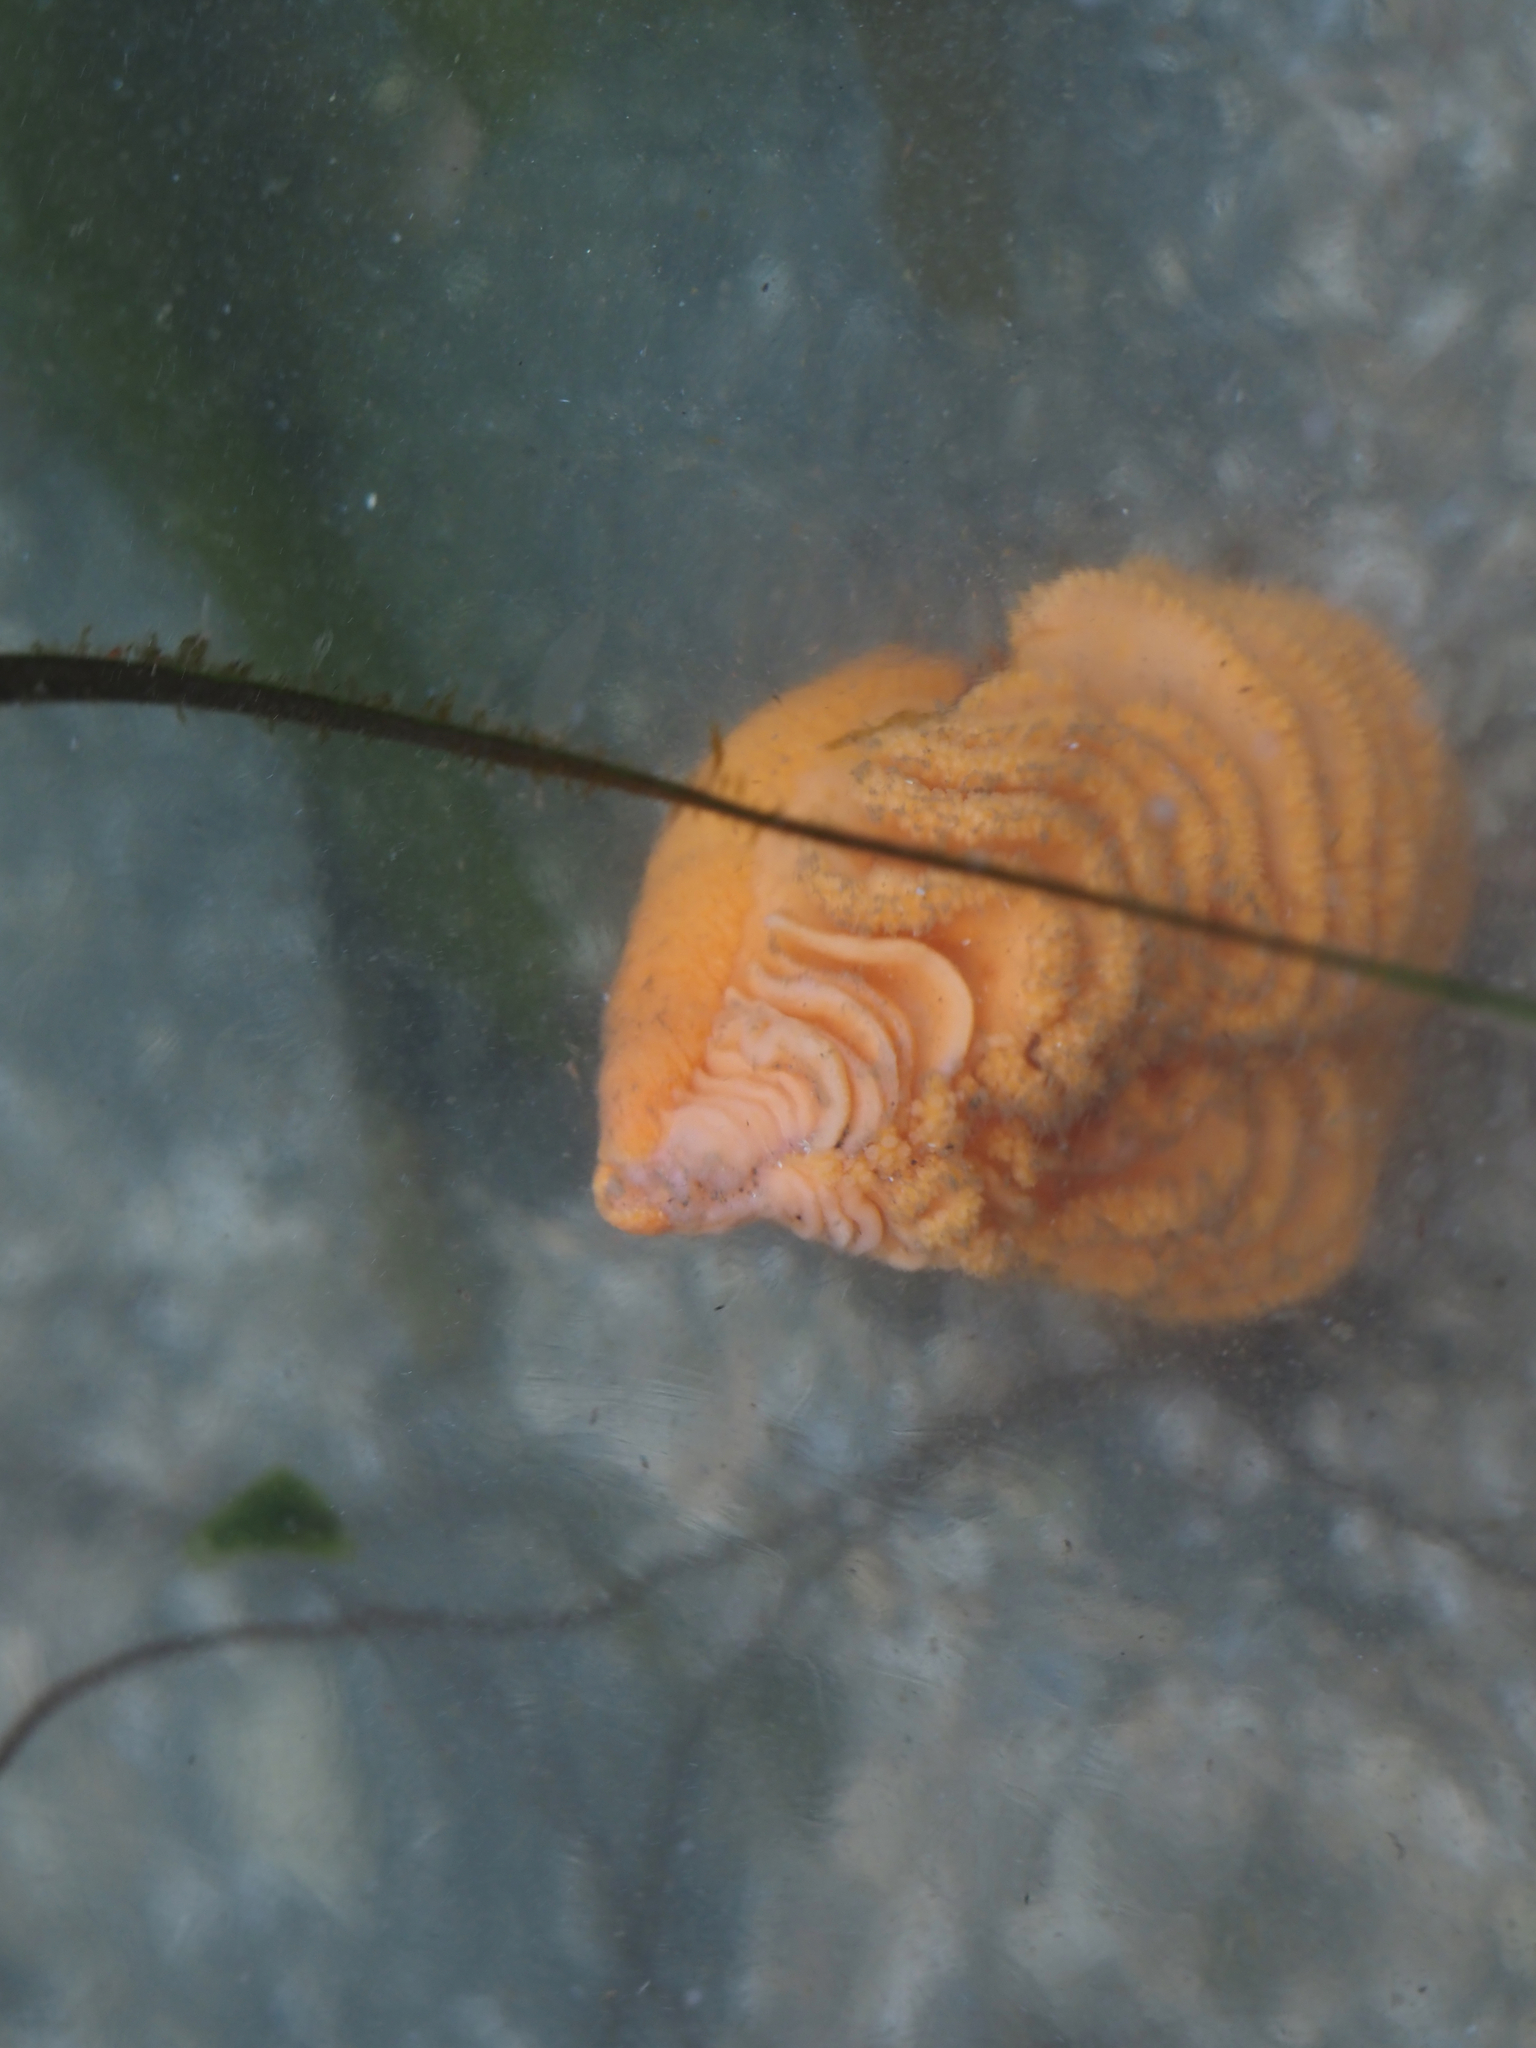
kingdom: Animalia
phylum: Cnidaria
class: Anthozoa
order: Scleralcyonacea
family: Pennatulidae
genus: Ptilosarcus
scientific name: Ptilosarcus gurneyi
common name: Gurney's sea pen
